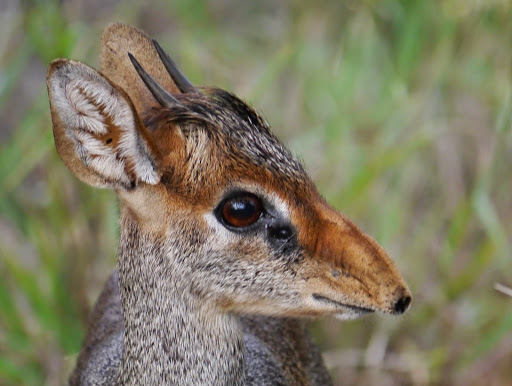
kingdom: Animalia
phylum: Chordata
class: Mammalia
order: Artiodactyla
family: Bovidae
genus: Madoqua
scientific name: Madoqua guentheri
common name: Günther's dikdik
